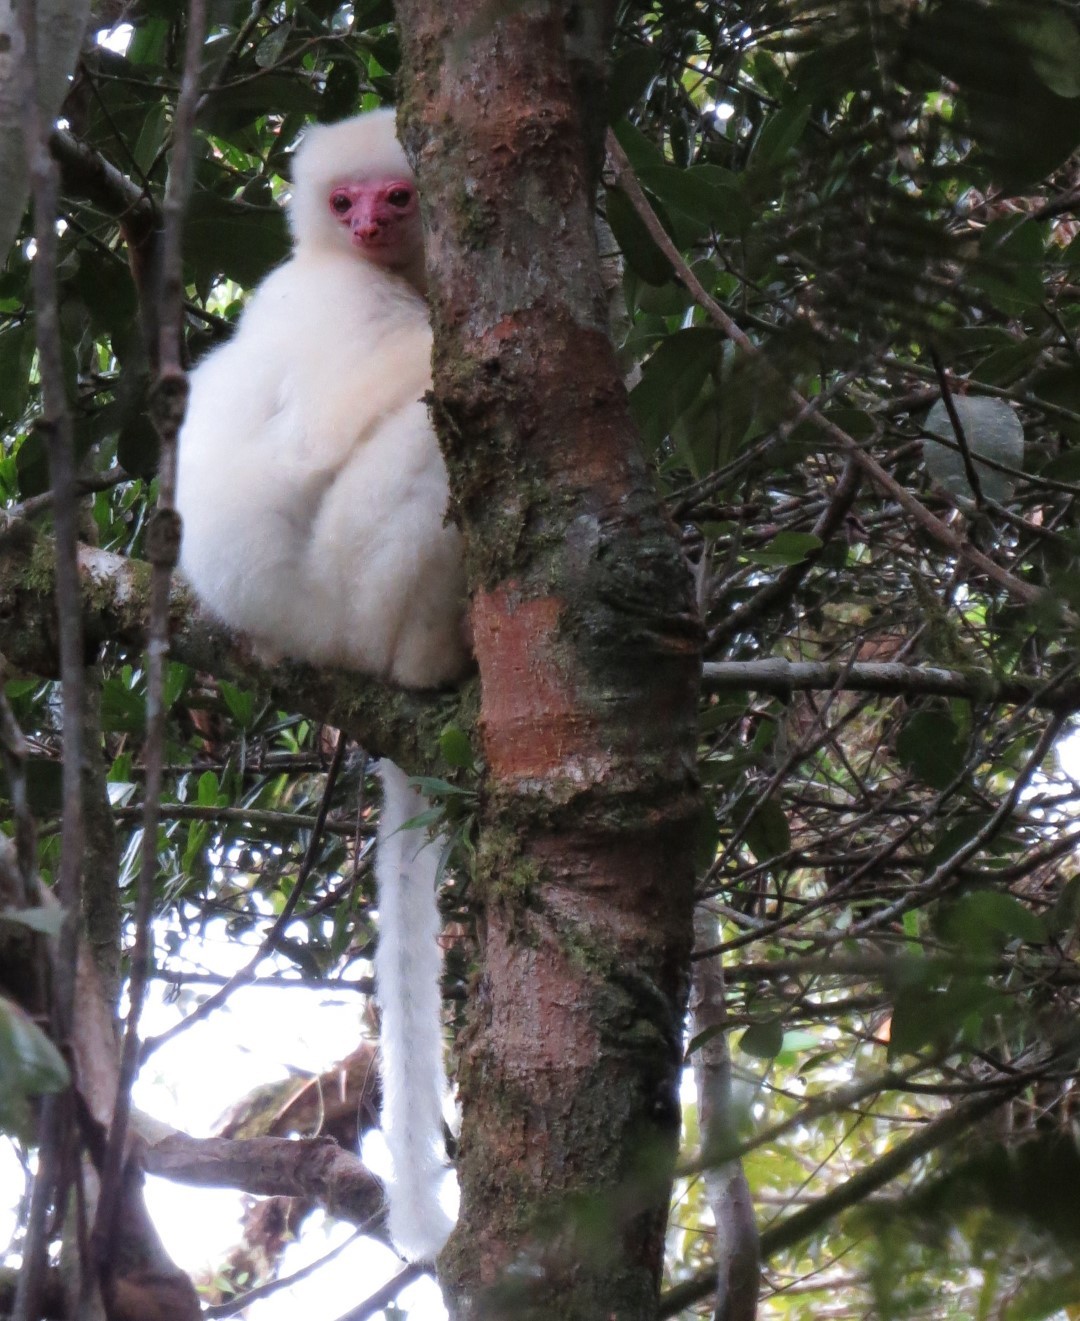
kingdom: Animalia
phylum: Chordata
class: Mammalia
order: Primates
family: Indriidae
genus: Propithecus
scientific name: Propithecus candidus
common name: Silky sifaka
